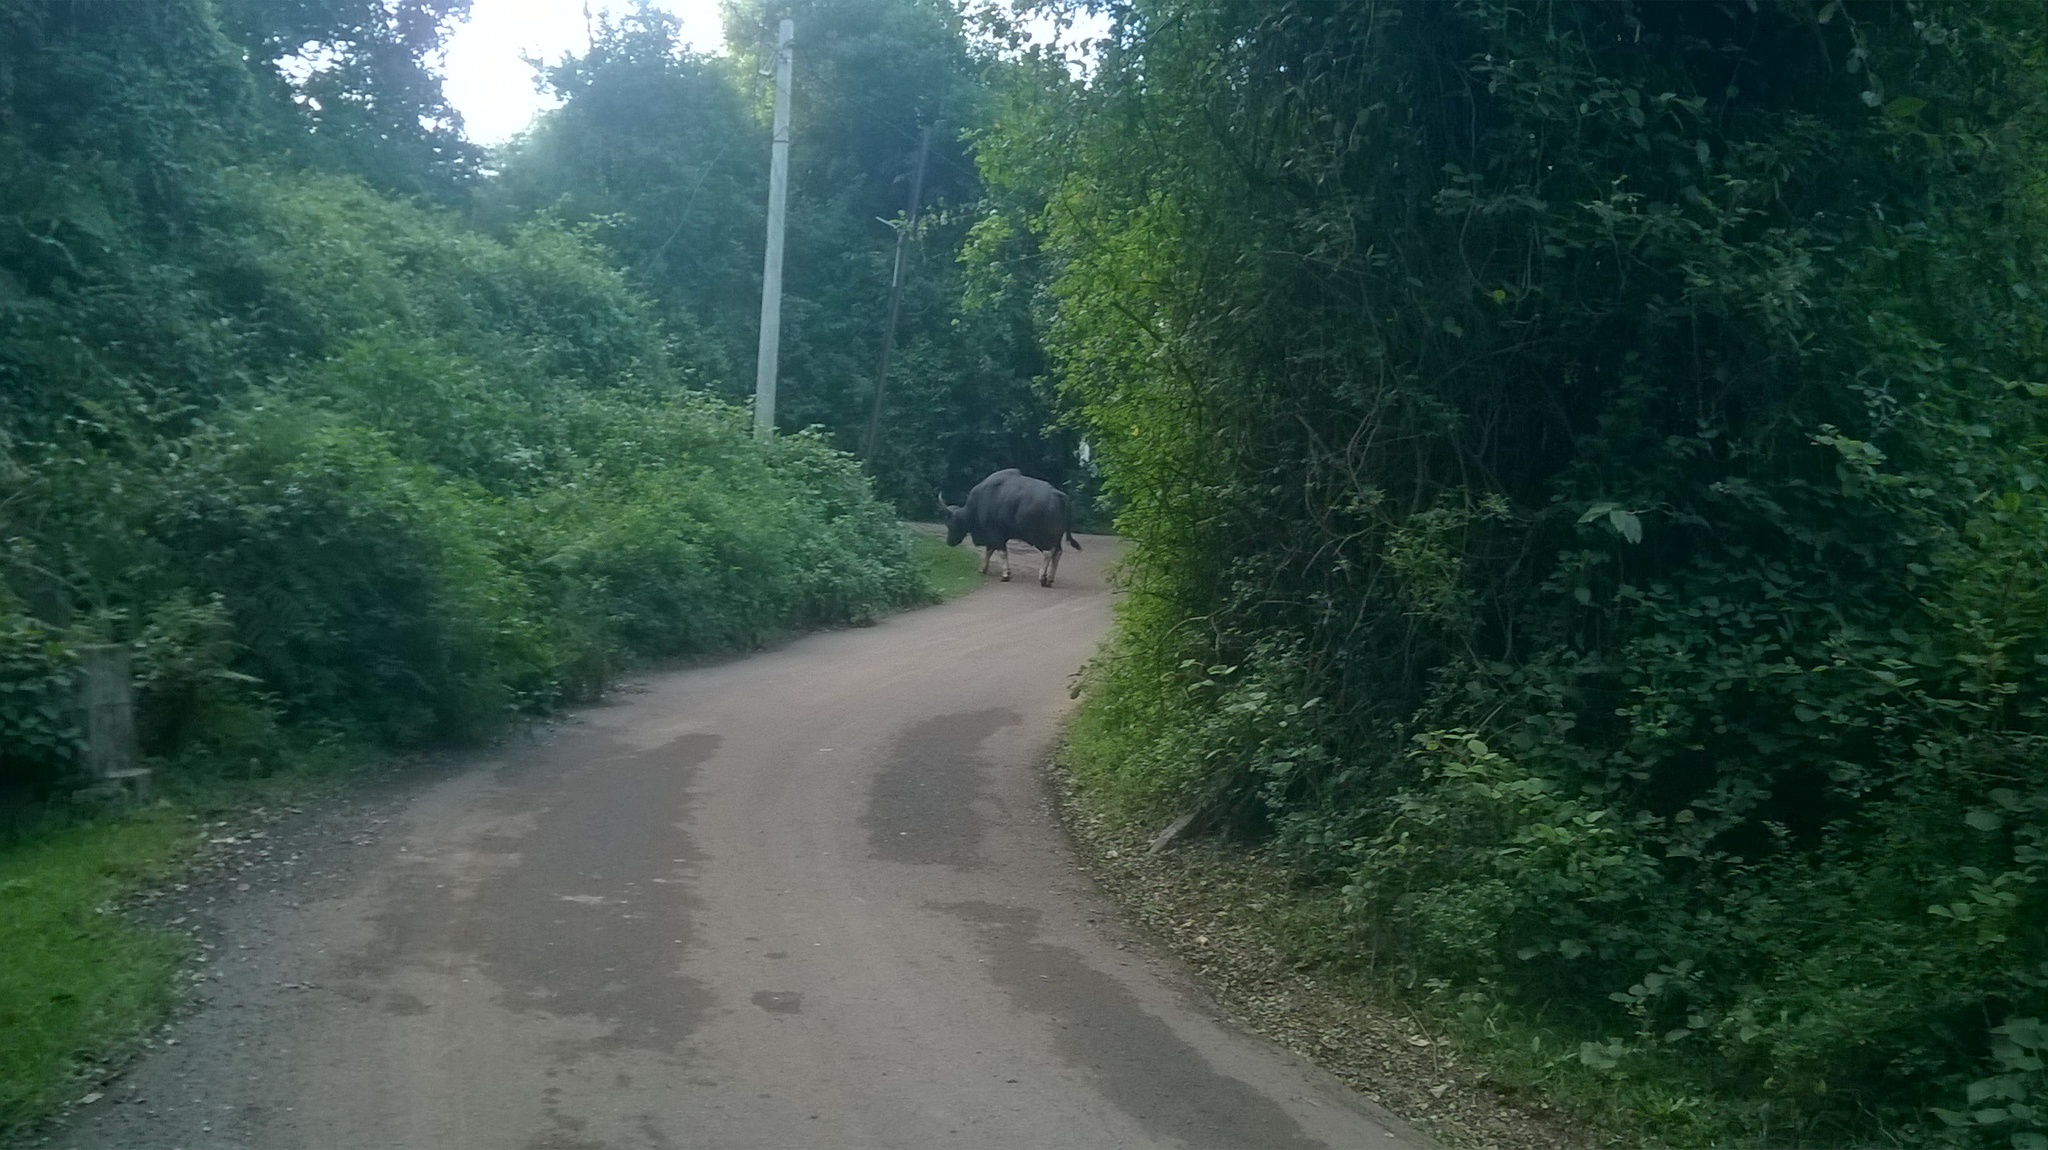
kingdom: Animalia
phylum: Chordata
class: Mammalia
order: Artiodactyla
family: Bovidae
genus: Bos
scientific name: Bos frontalis
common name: Gaur
